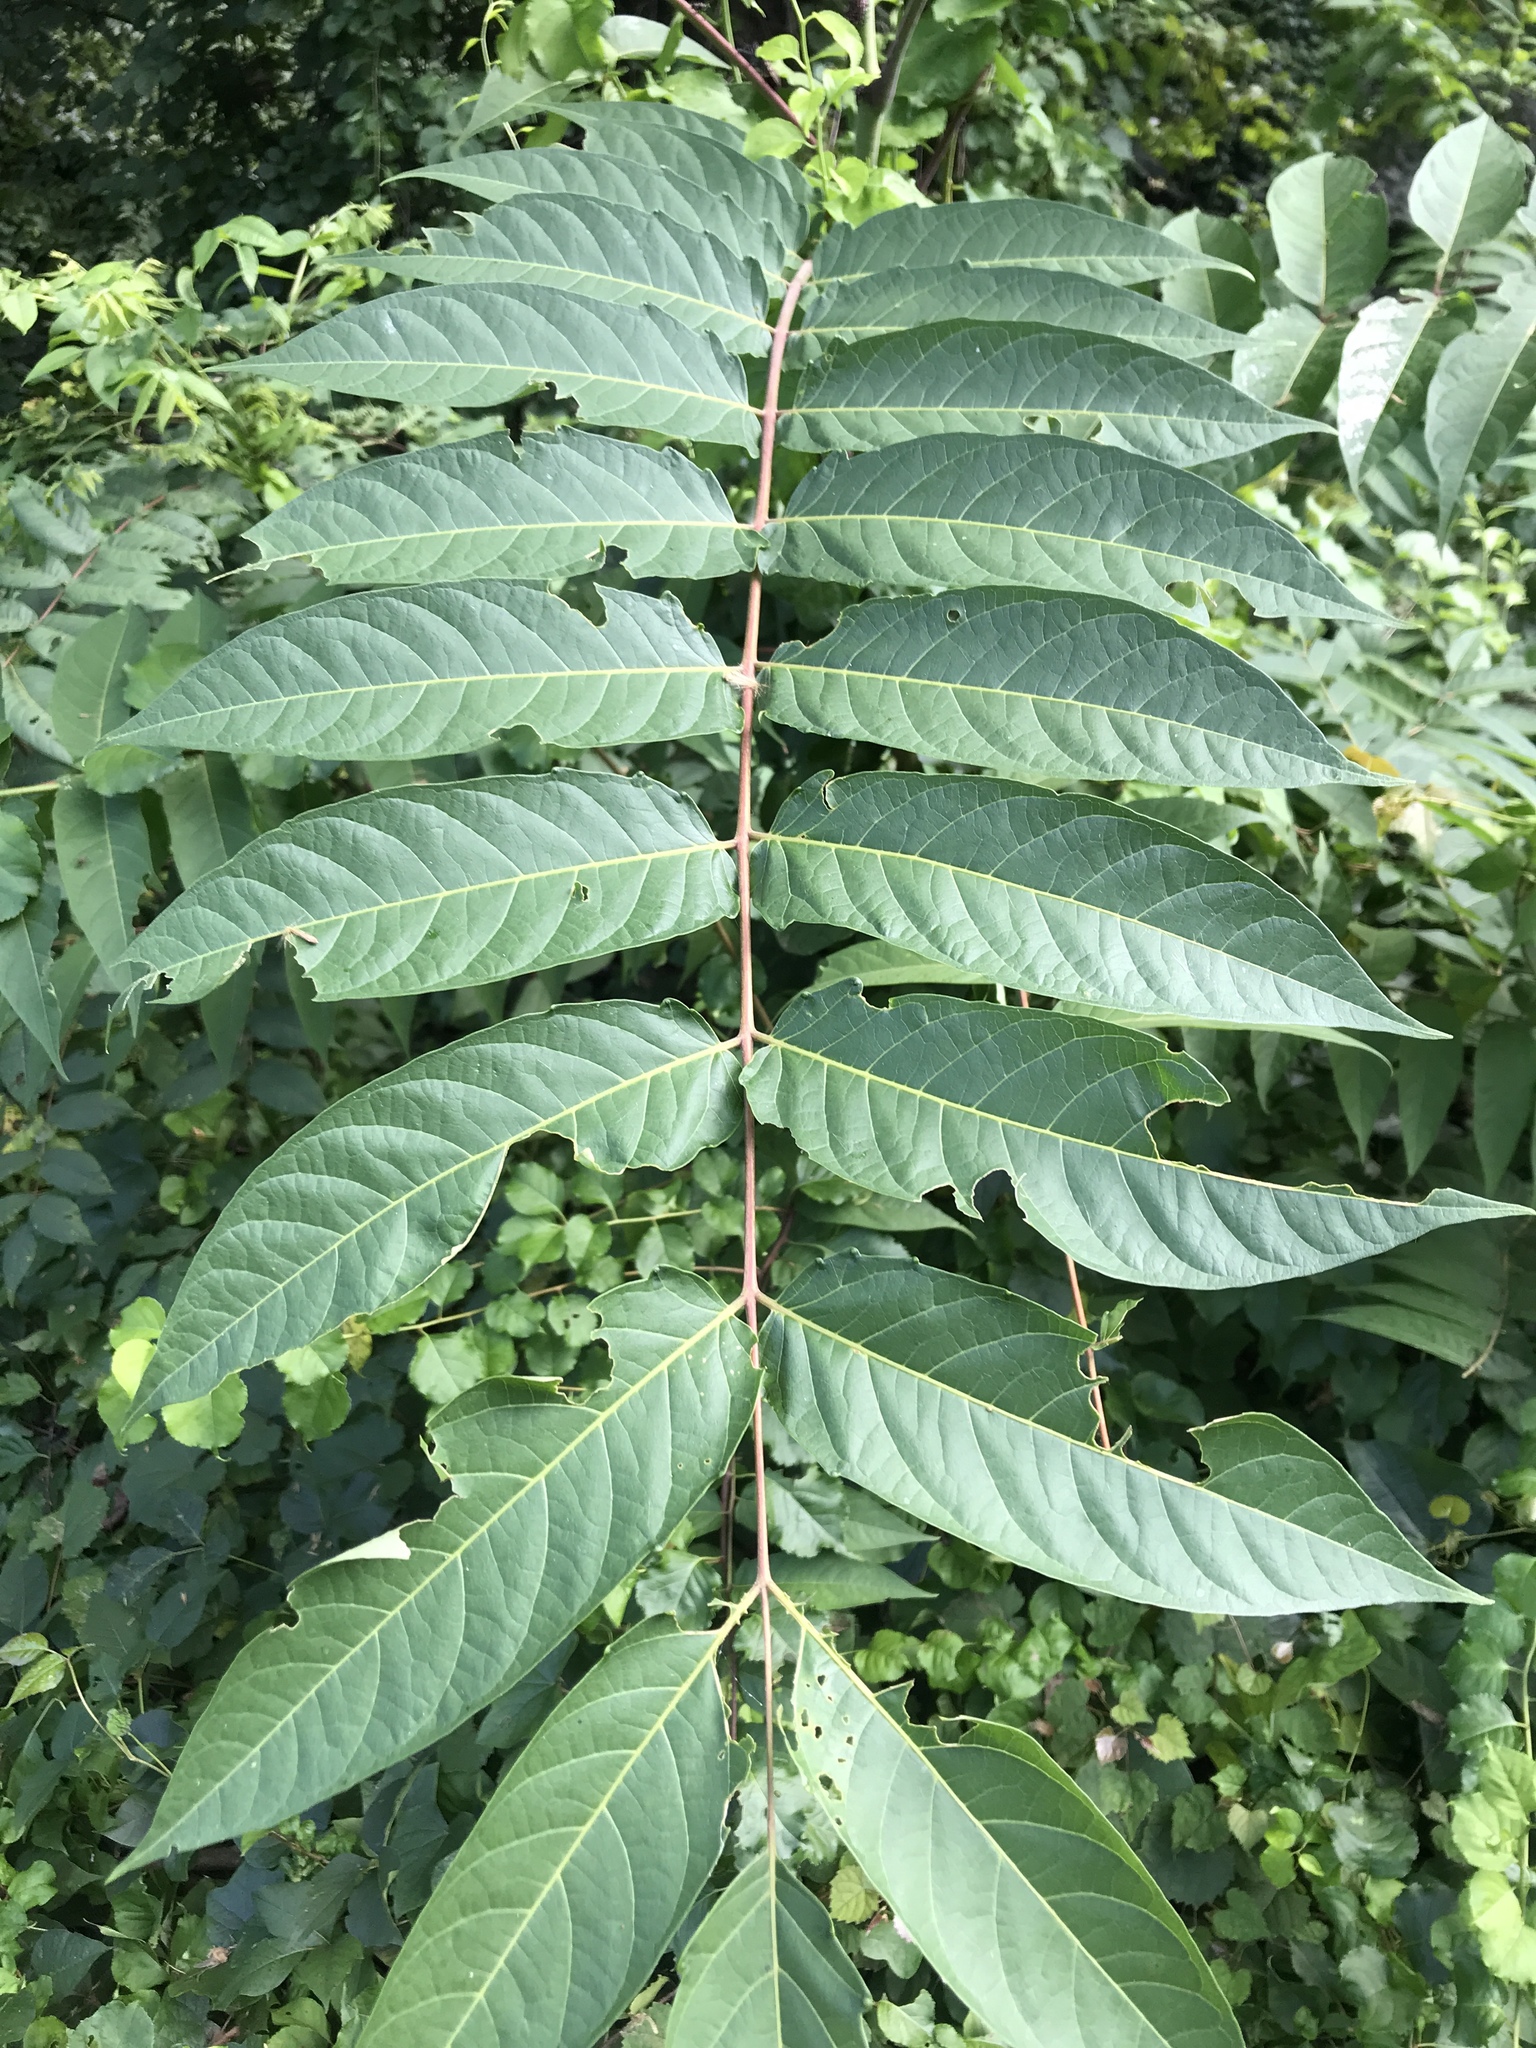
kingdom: Plantae
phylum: Tracheophyta
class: Magnoliopsida
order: Sapindales
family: Simaroubaceae
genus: Ailanthus
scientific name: Ailanthus altissima
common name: Tree-of-heaven
